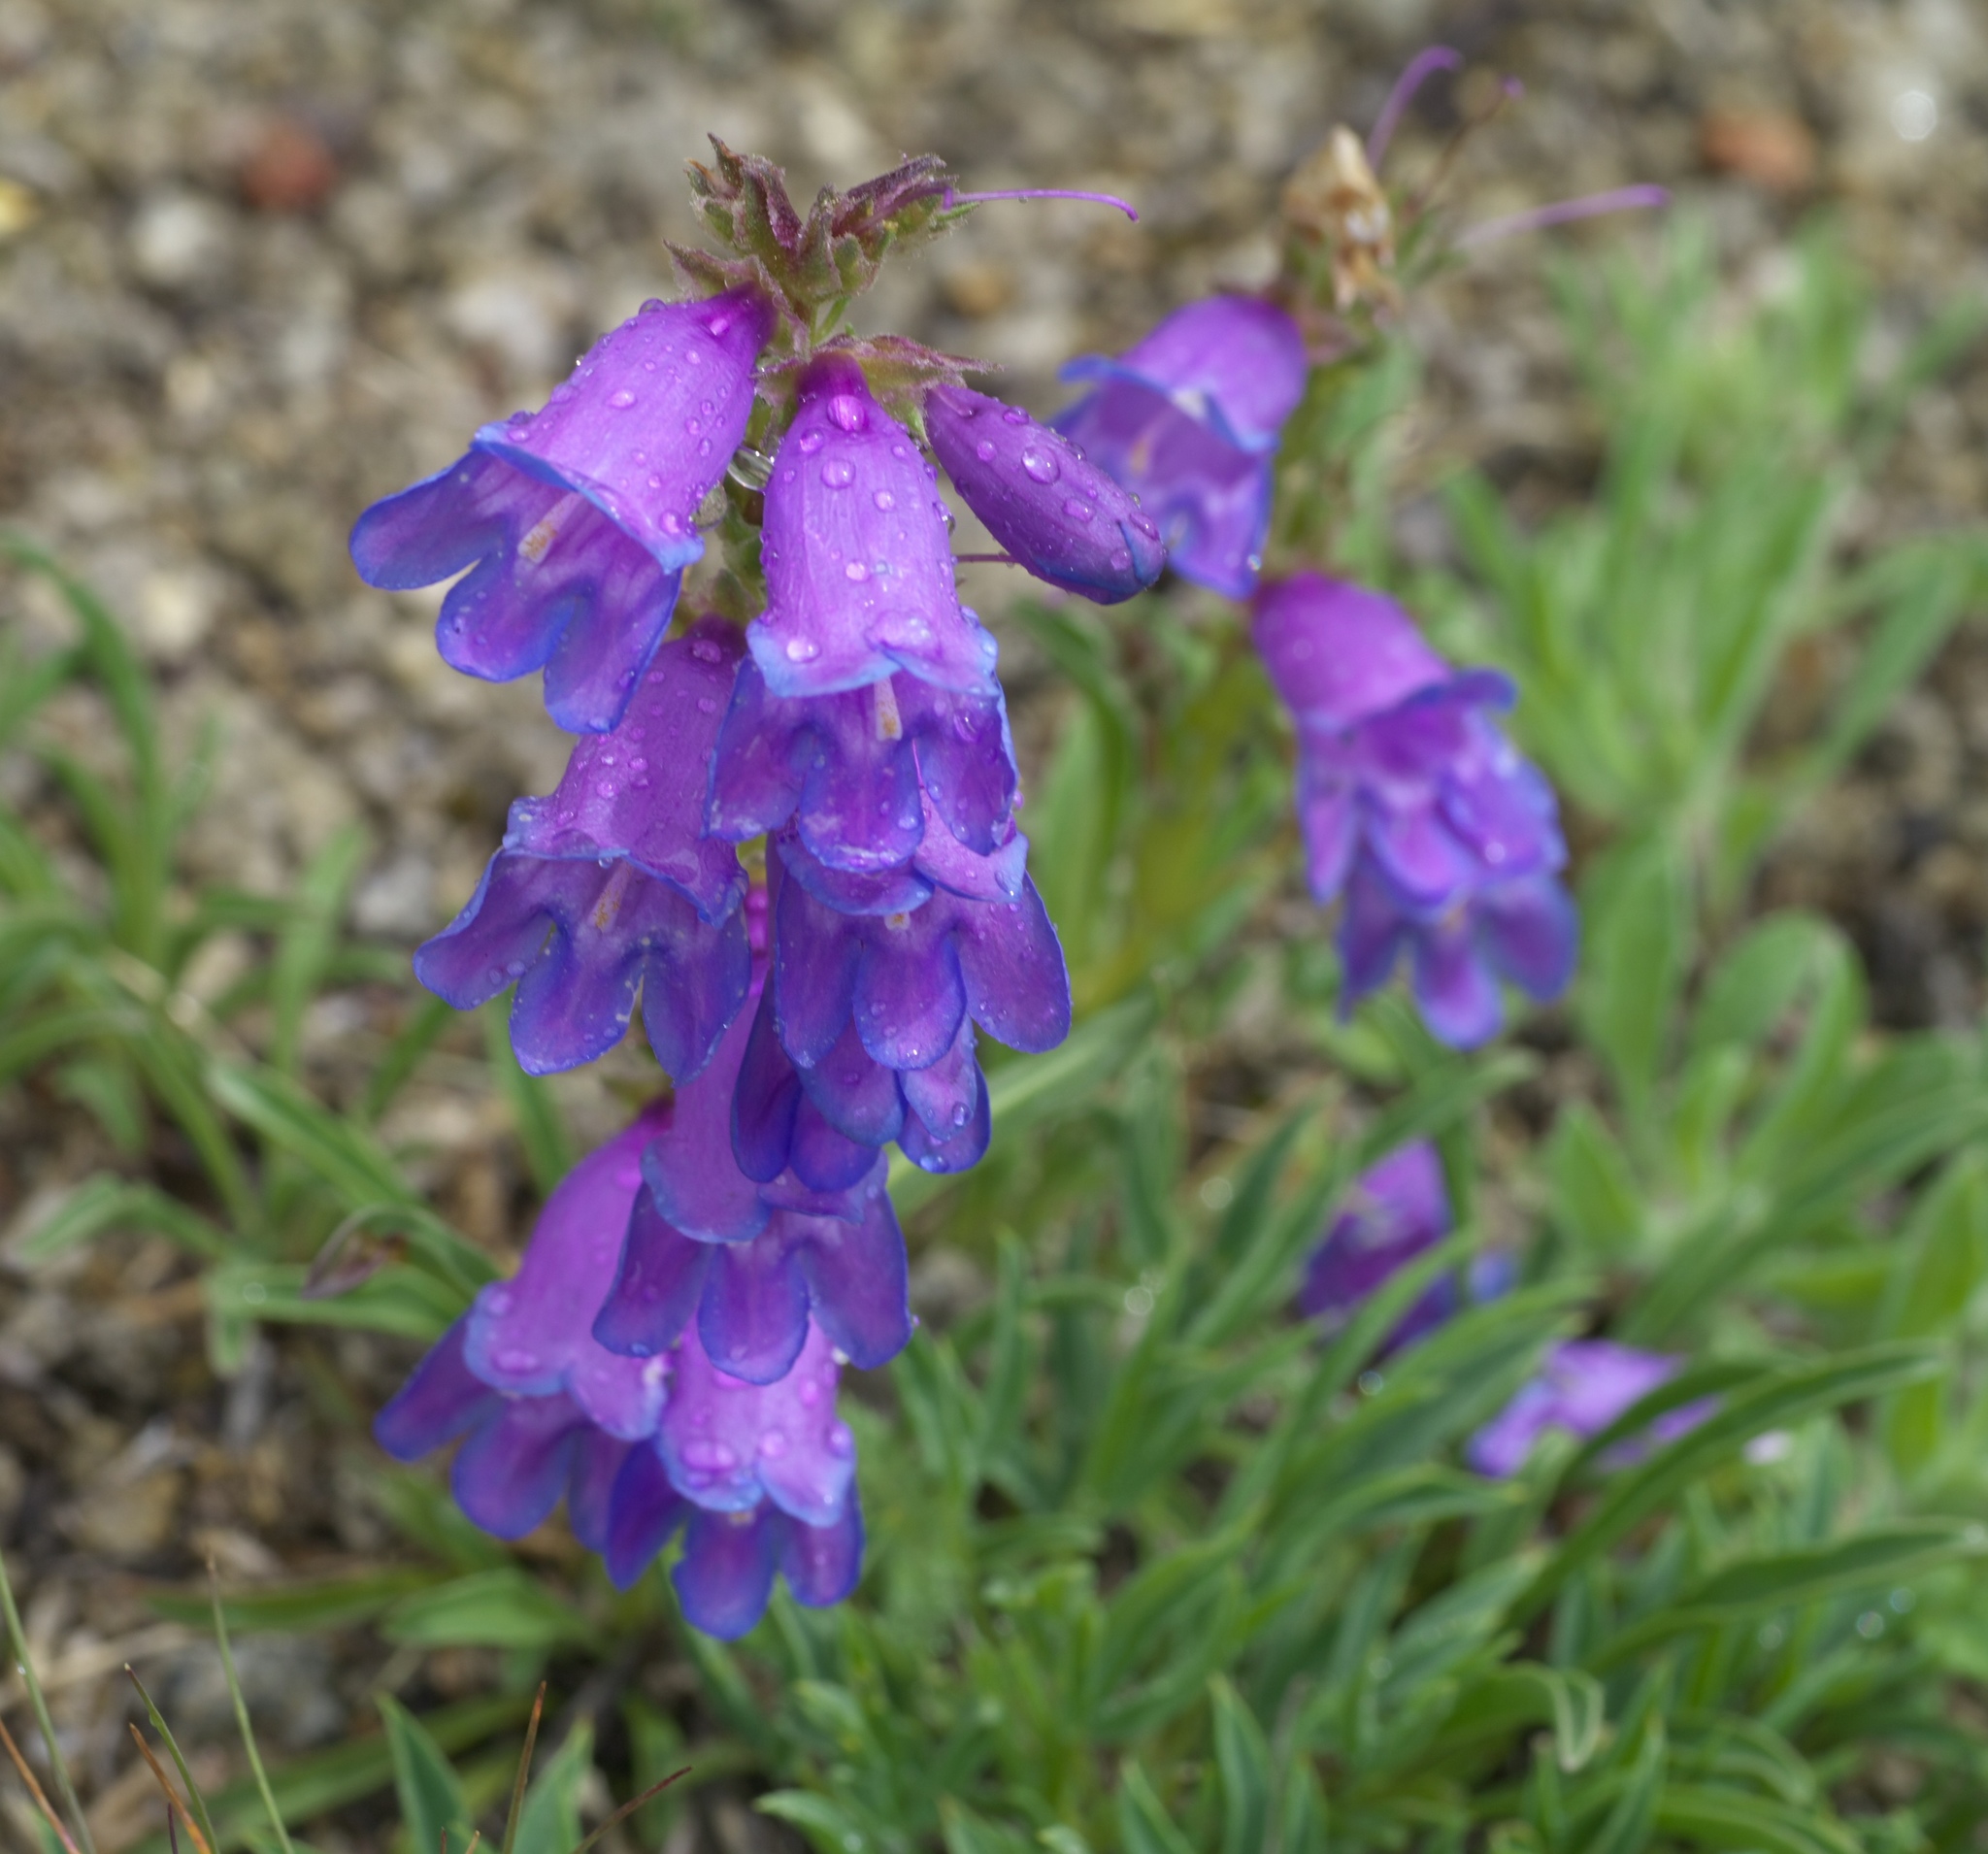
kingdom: Plantae
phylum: Tracheophyta
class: Magnoliopsida
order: Lamiales
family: Plantaginaceae
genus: Penstemon
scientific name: Penstemon hallii
